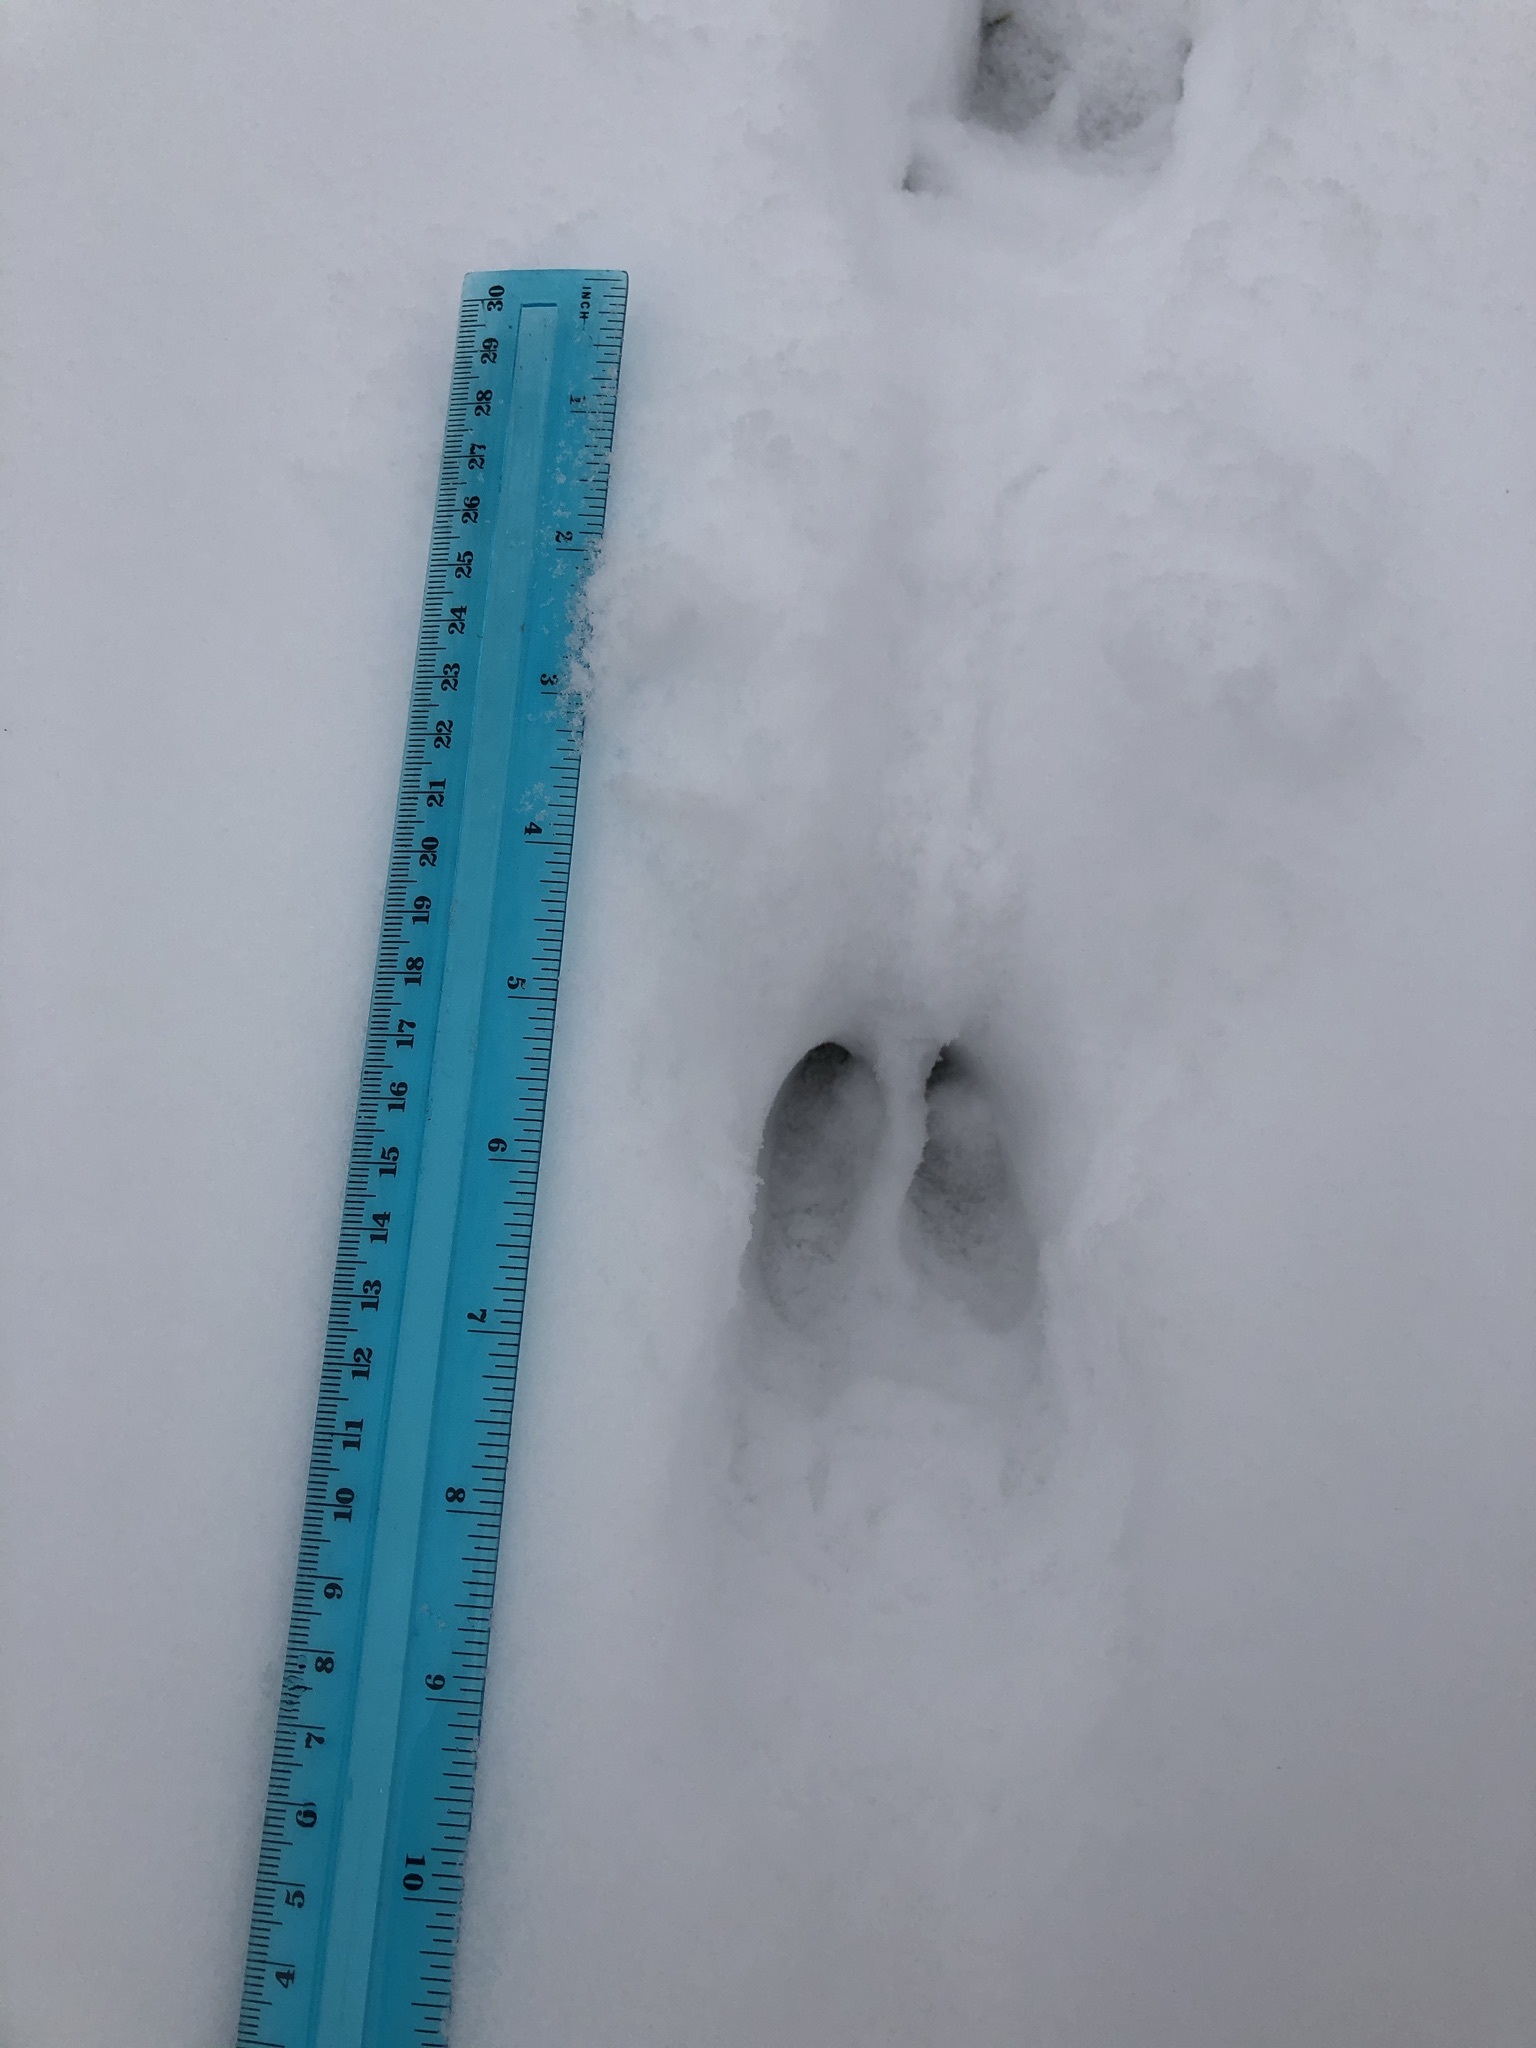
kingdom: Animalia
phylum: Chordata
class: Mammalia
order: Artiodactyla
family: Cervidae
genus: Odocoileus
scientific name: Odocoileus virginianus
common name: White-tailed deer
